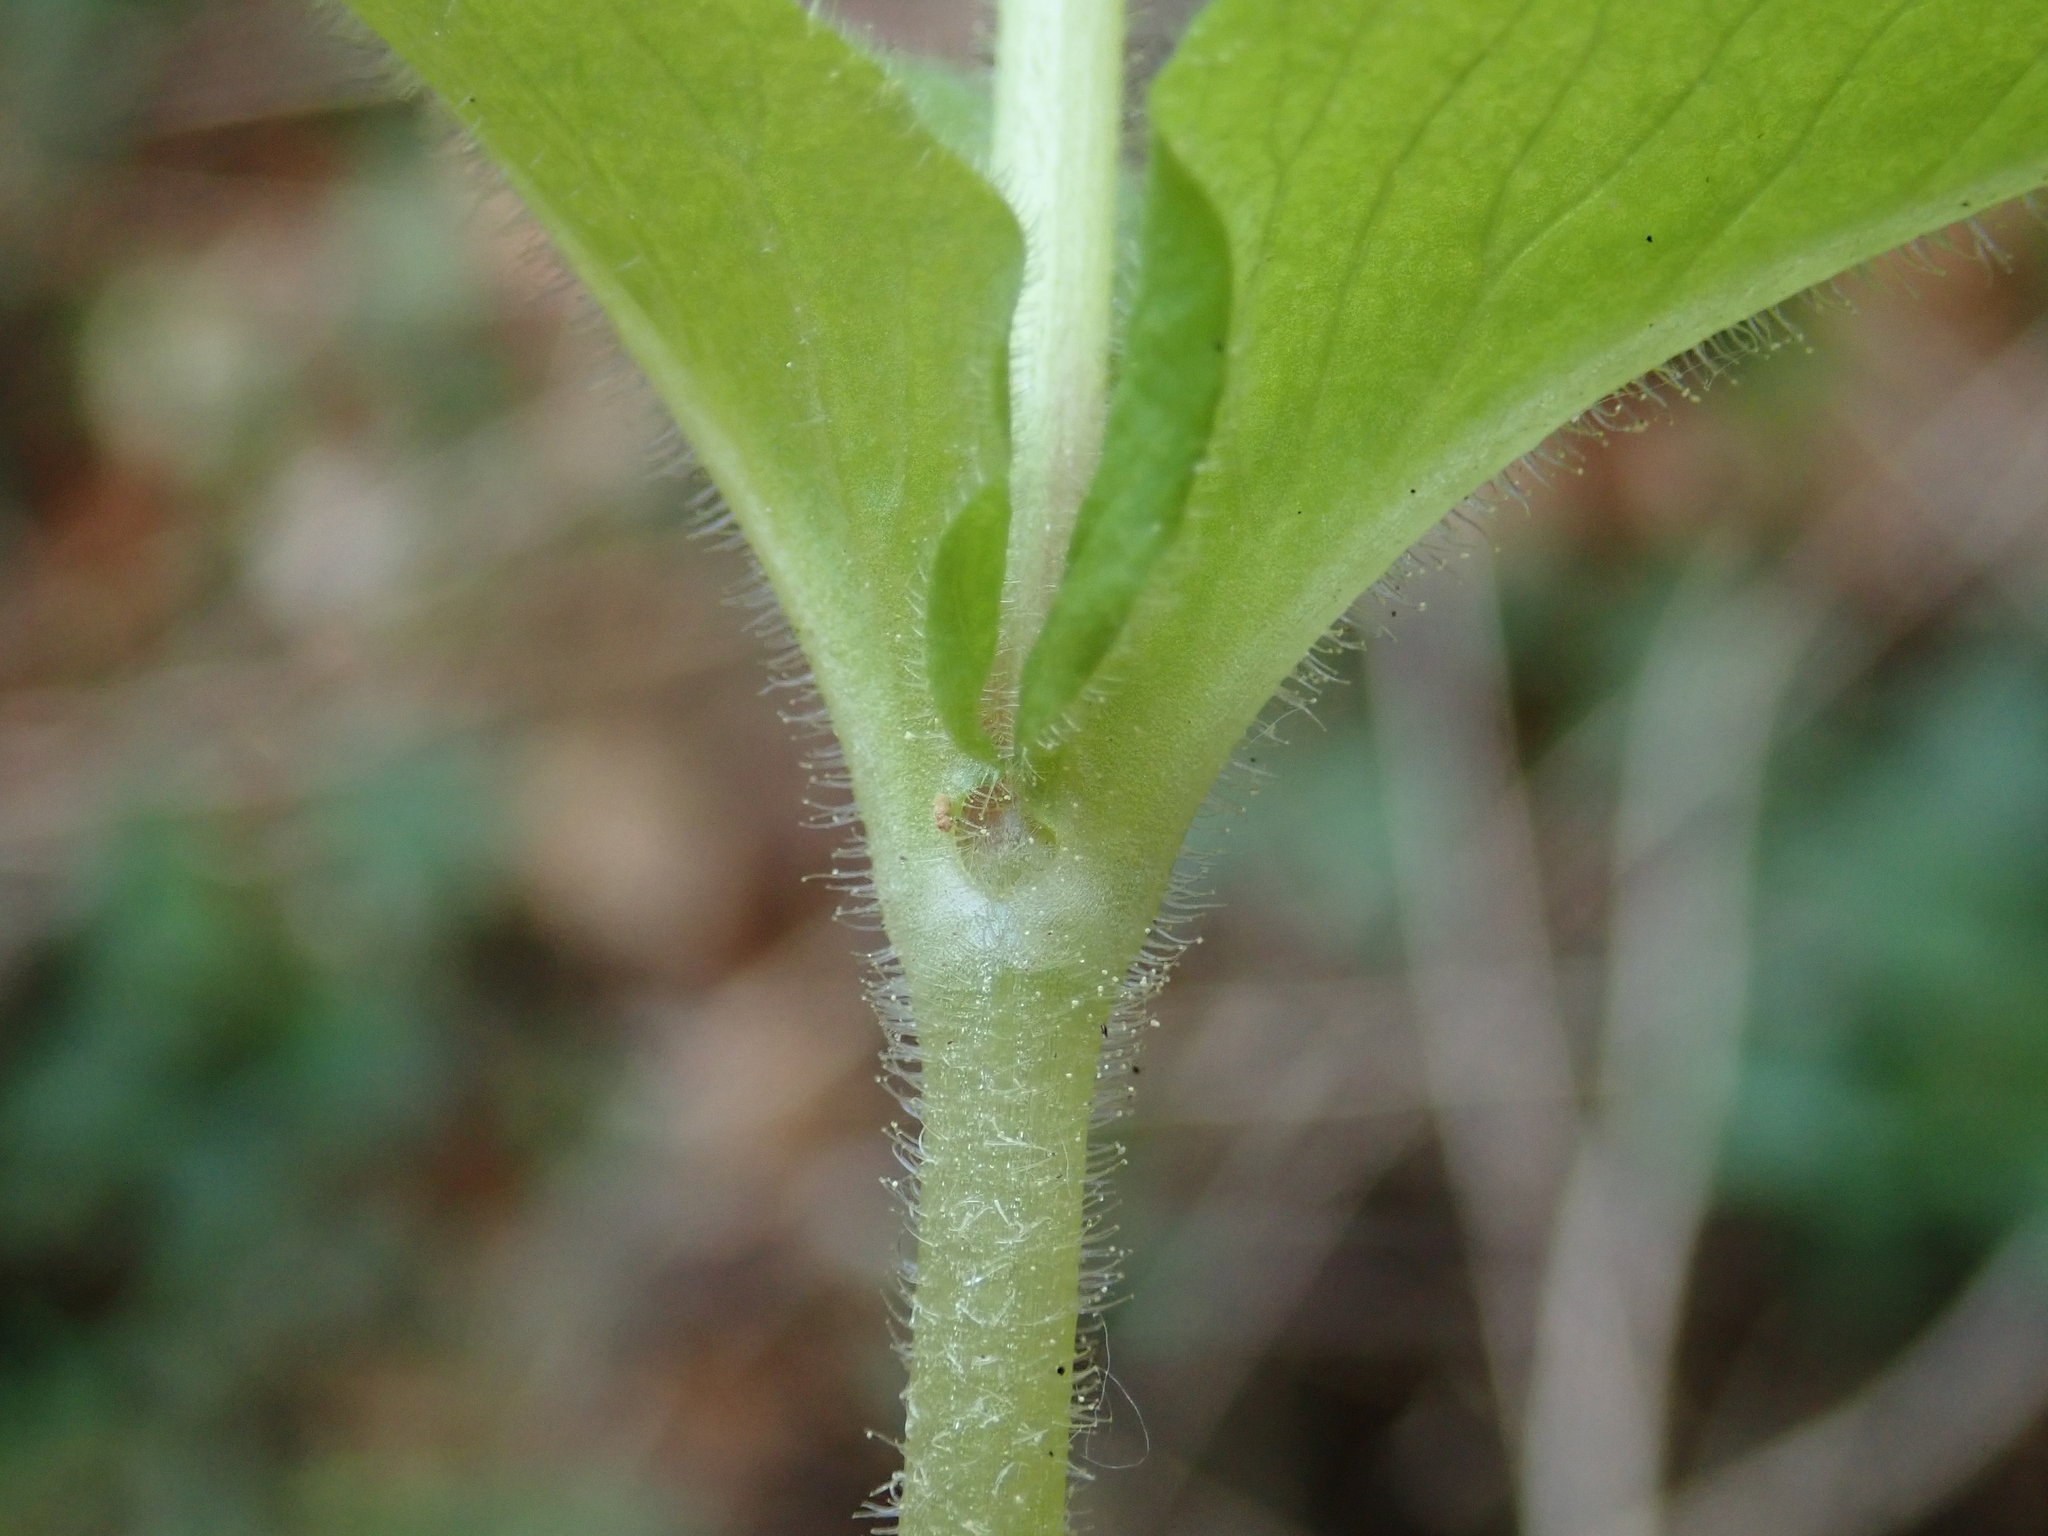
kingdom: Plantae
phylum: Tracheophyta
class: Magnoliopsida
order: Caryophyllales
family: Caryophyllaceae
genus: Stellaria
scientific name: Stellaria nemorum
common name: Wood stitchwort
